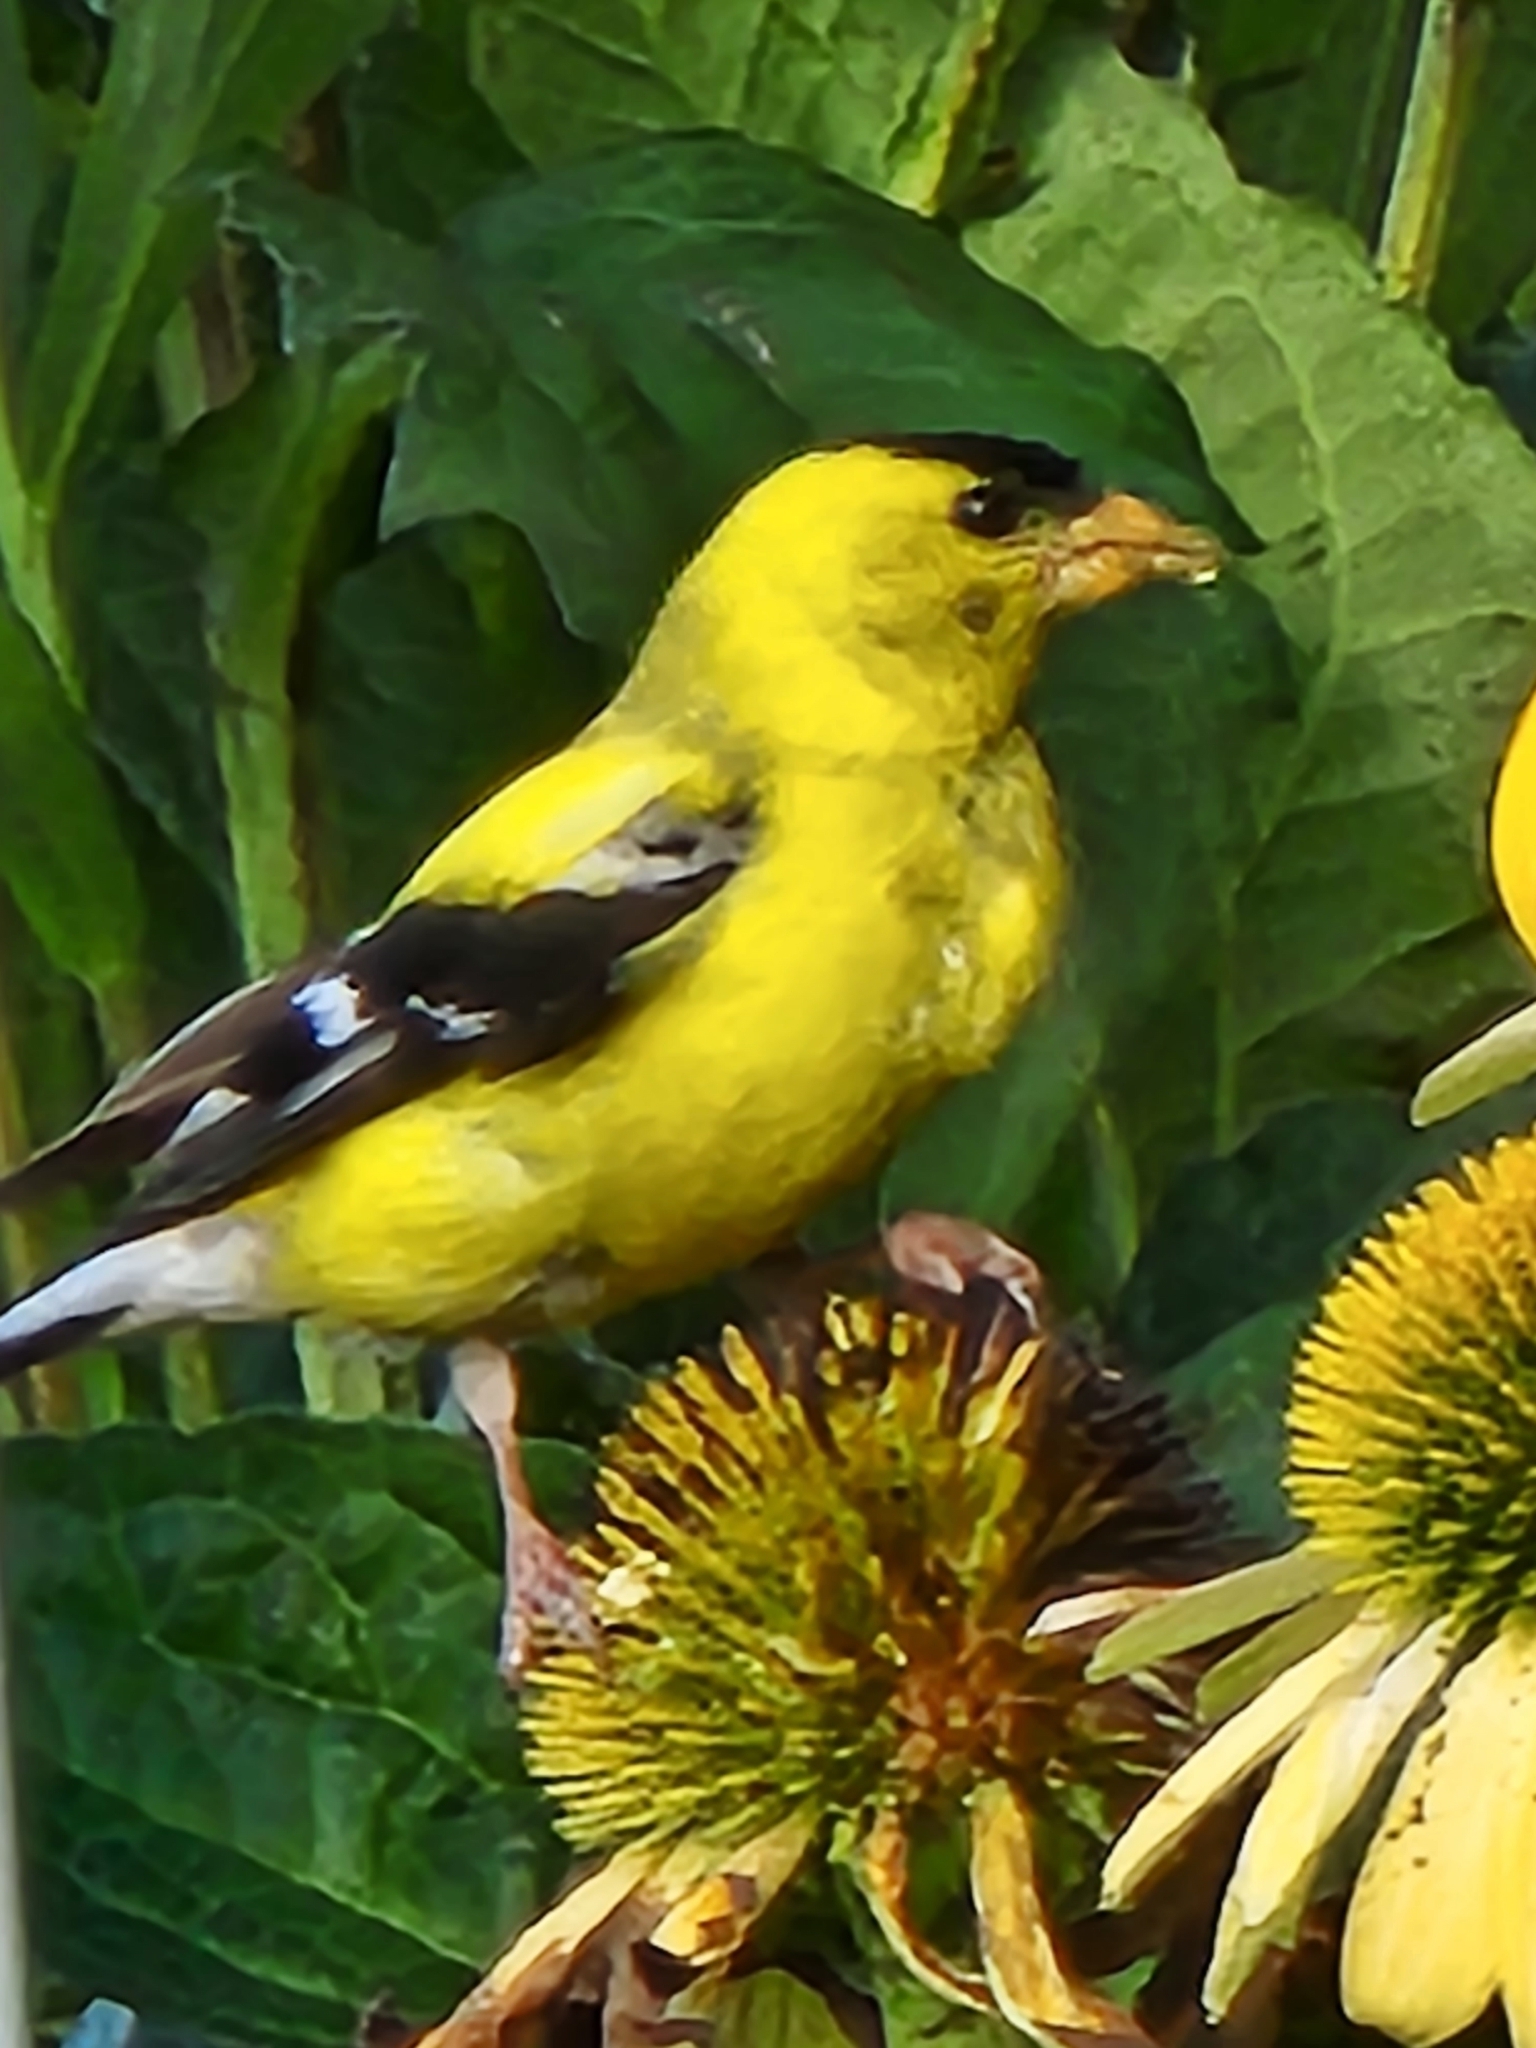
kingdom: Animalia
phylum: Chordata
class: Aves
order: Passeriformes
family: Fringillidae
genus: Spinus
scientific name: Spinus tristis
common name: American goldfinch
